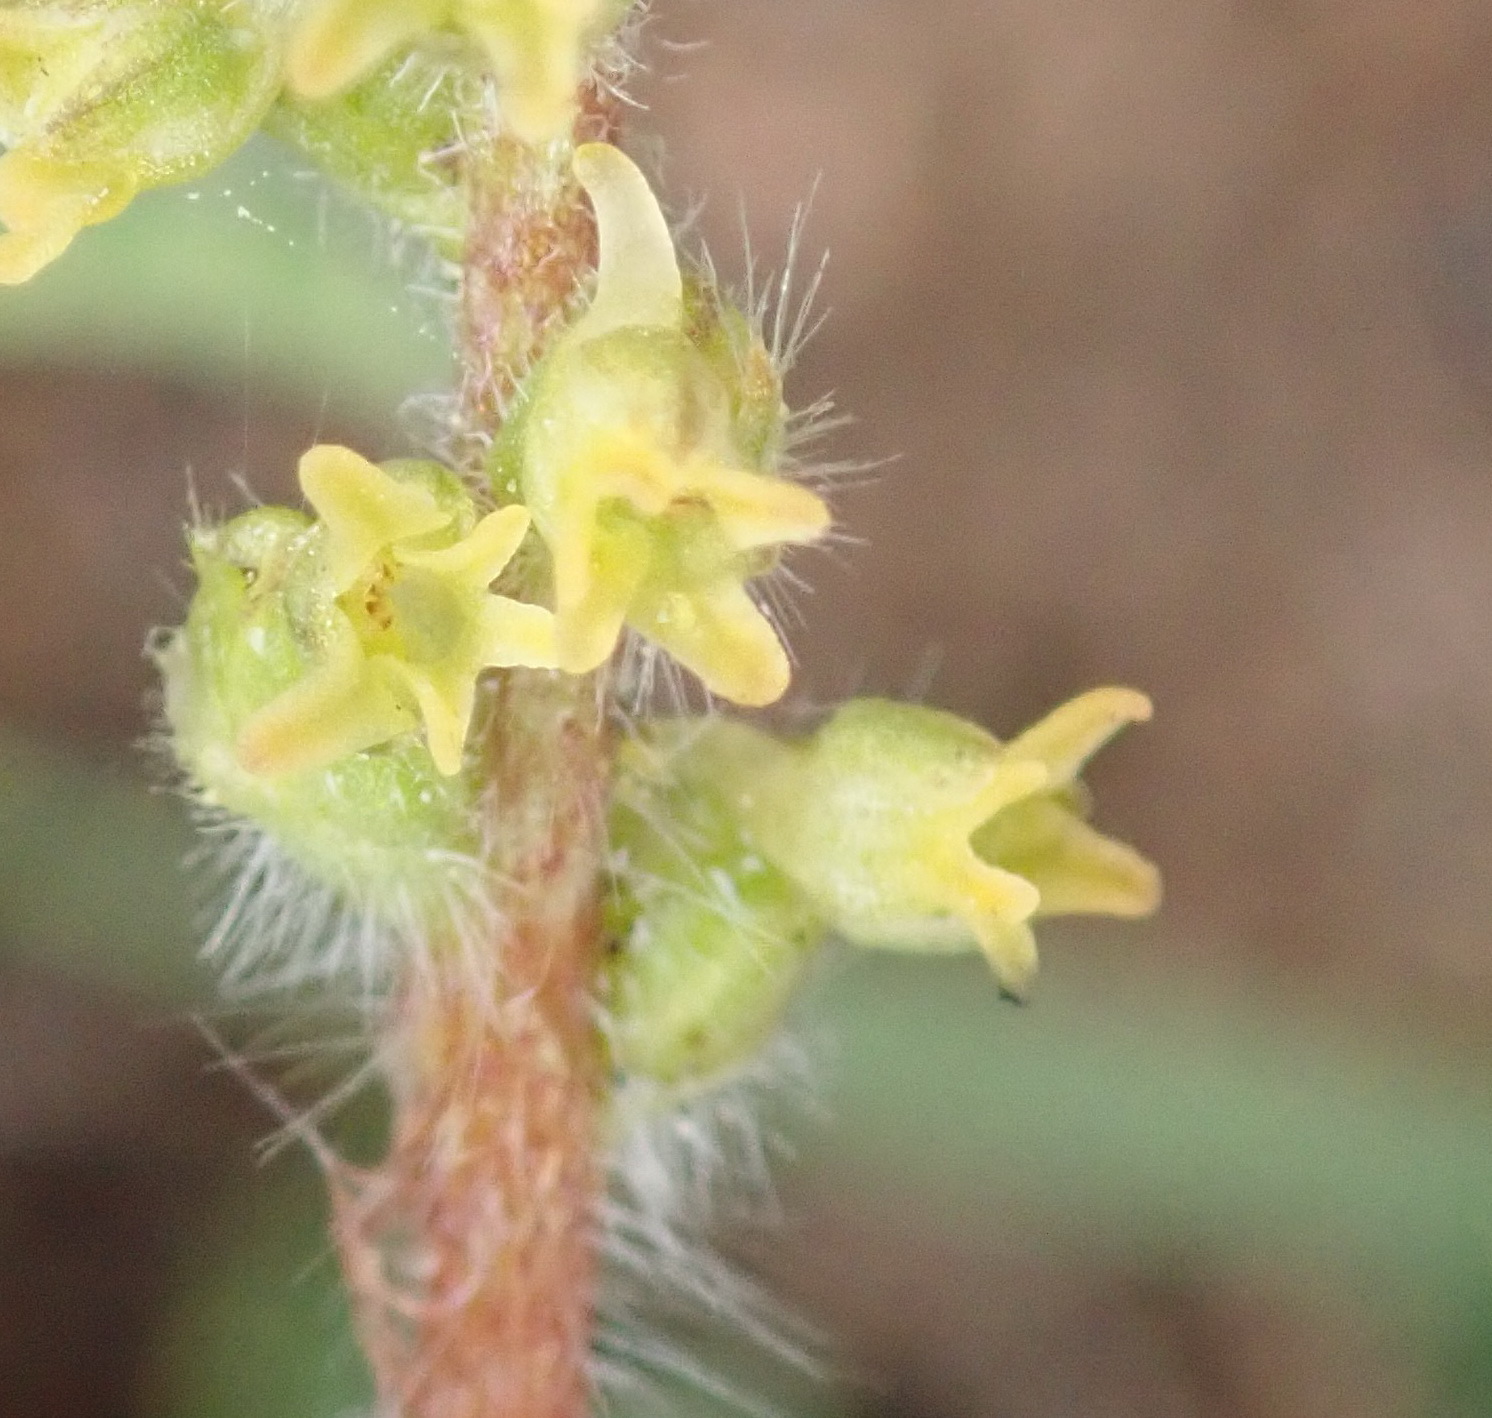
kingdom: Plantae
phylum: Tracheophyta
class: Liliopsida
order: Asparagales
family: Orchidaceae
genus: Holothrix
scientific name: Holothrix villosa
